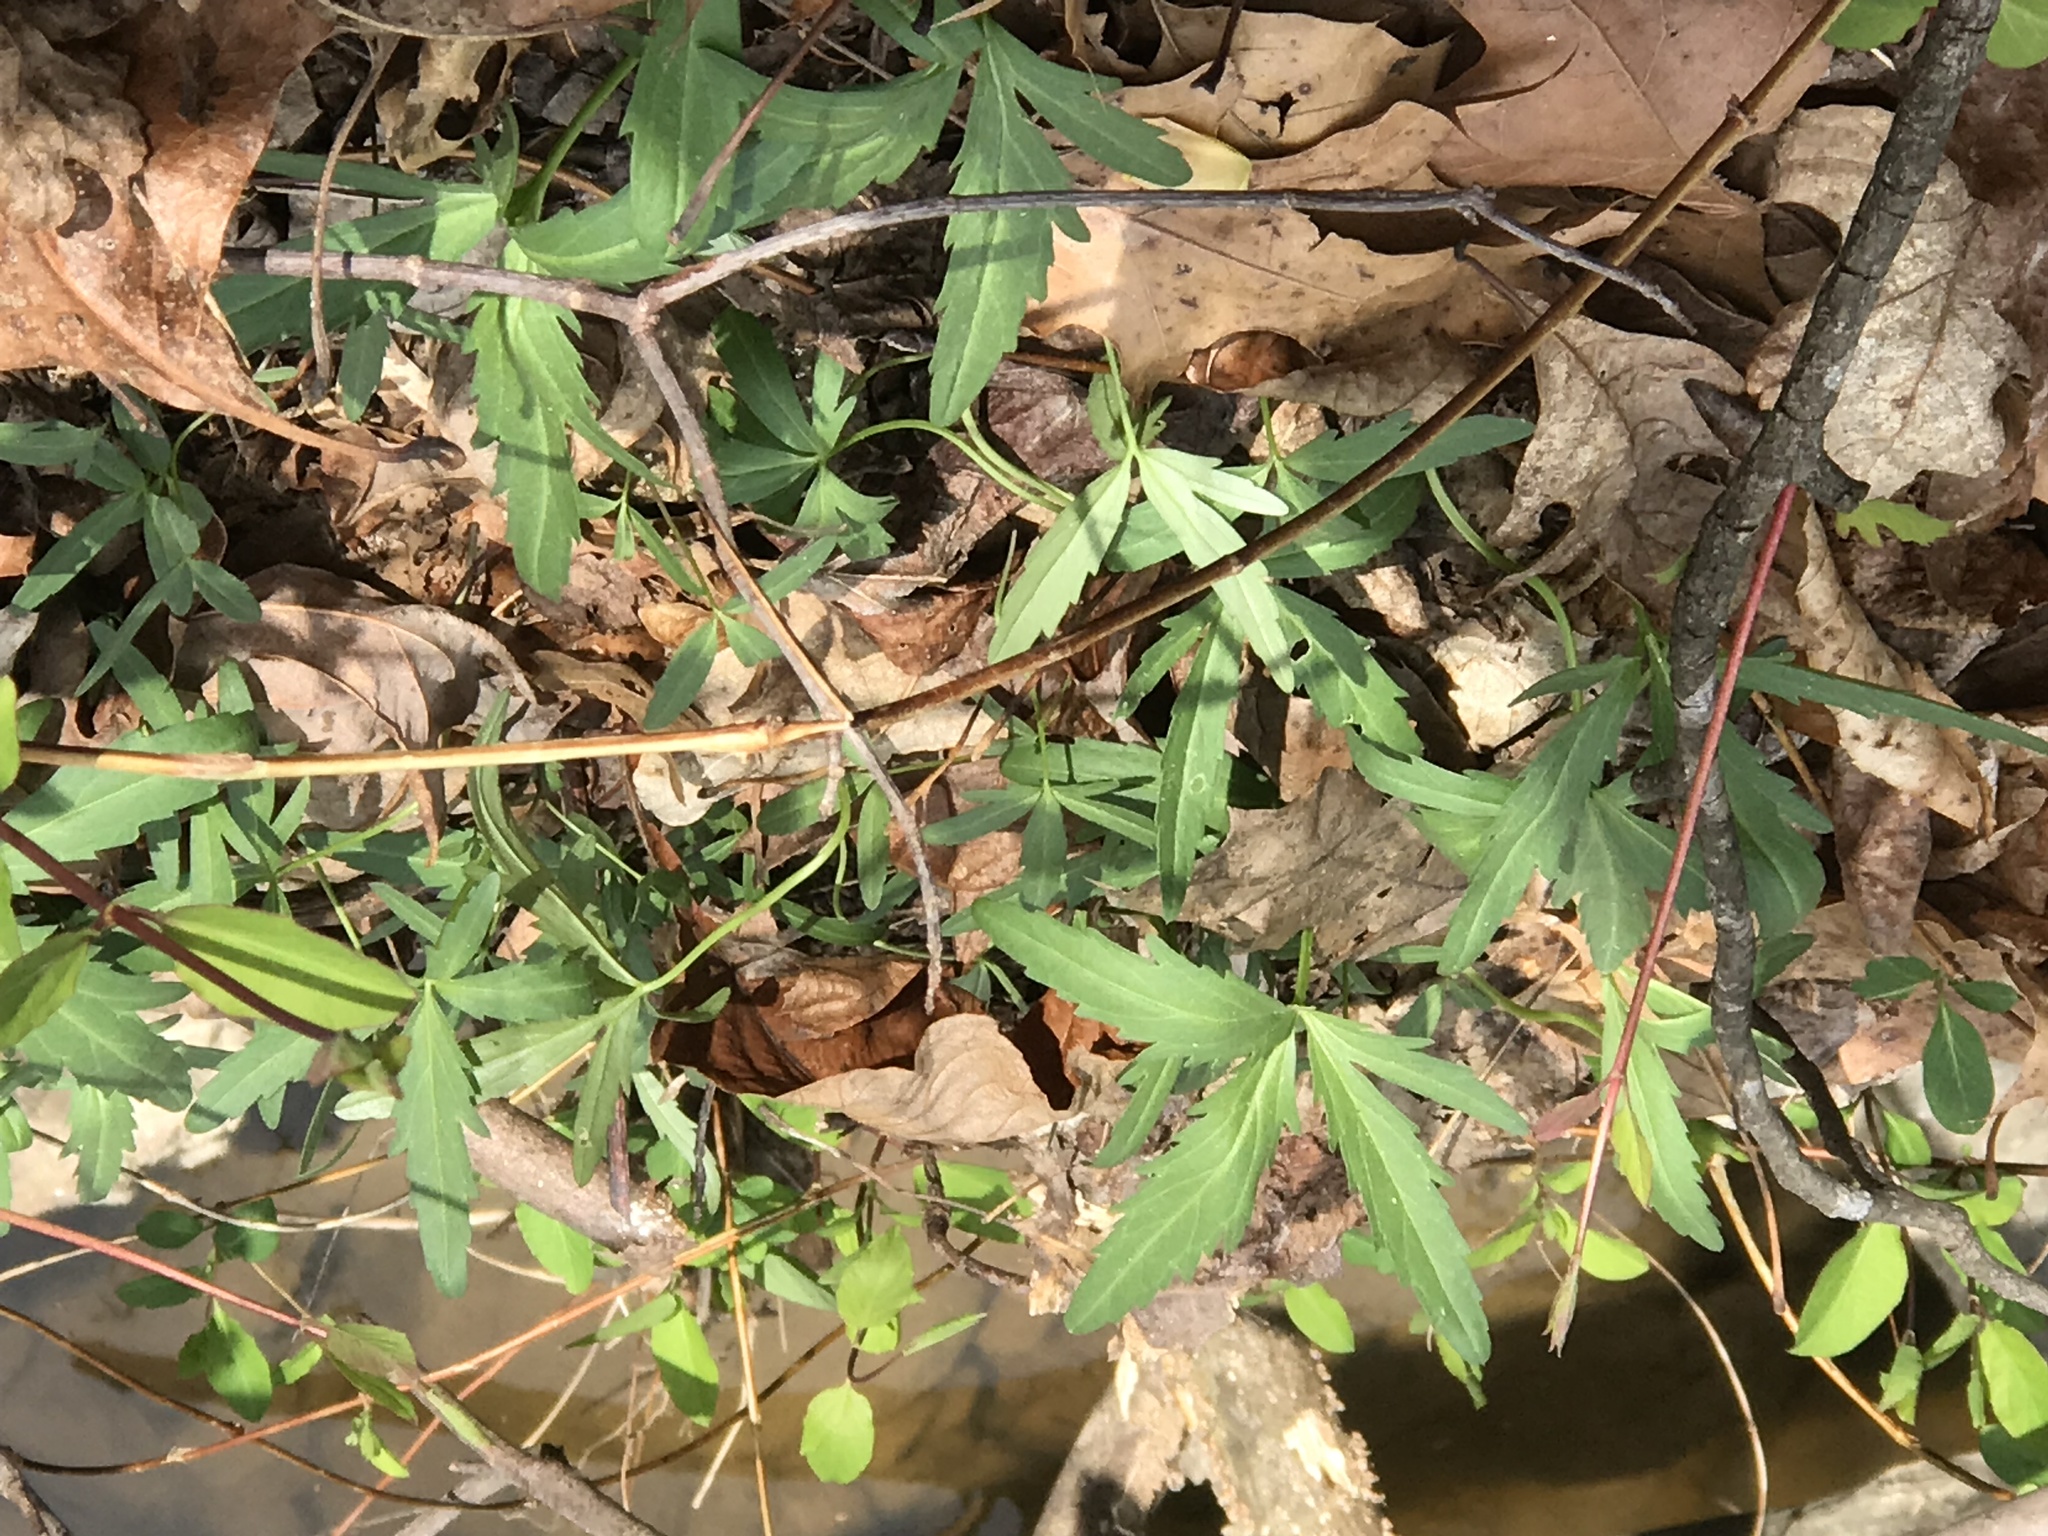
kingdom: Plantae
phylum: Tracheophyta
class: Magnoliopsida
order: Brassicales
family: Brassicaceae
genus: Cardamine
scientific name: Cardamine concatenata
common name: Cut-leaf toothcup
